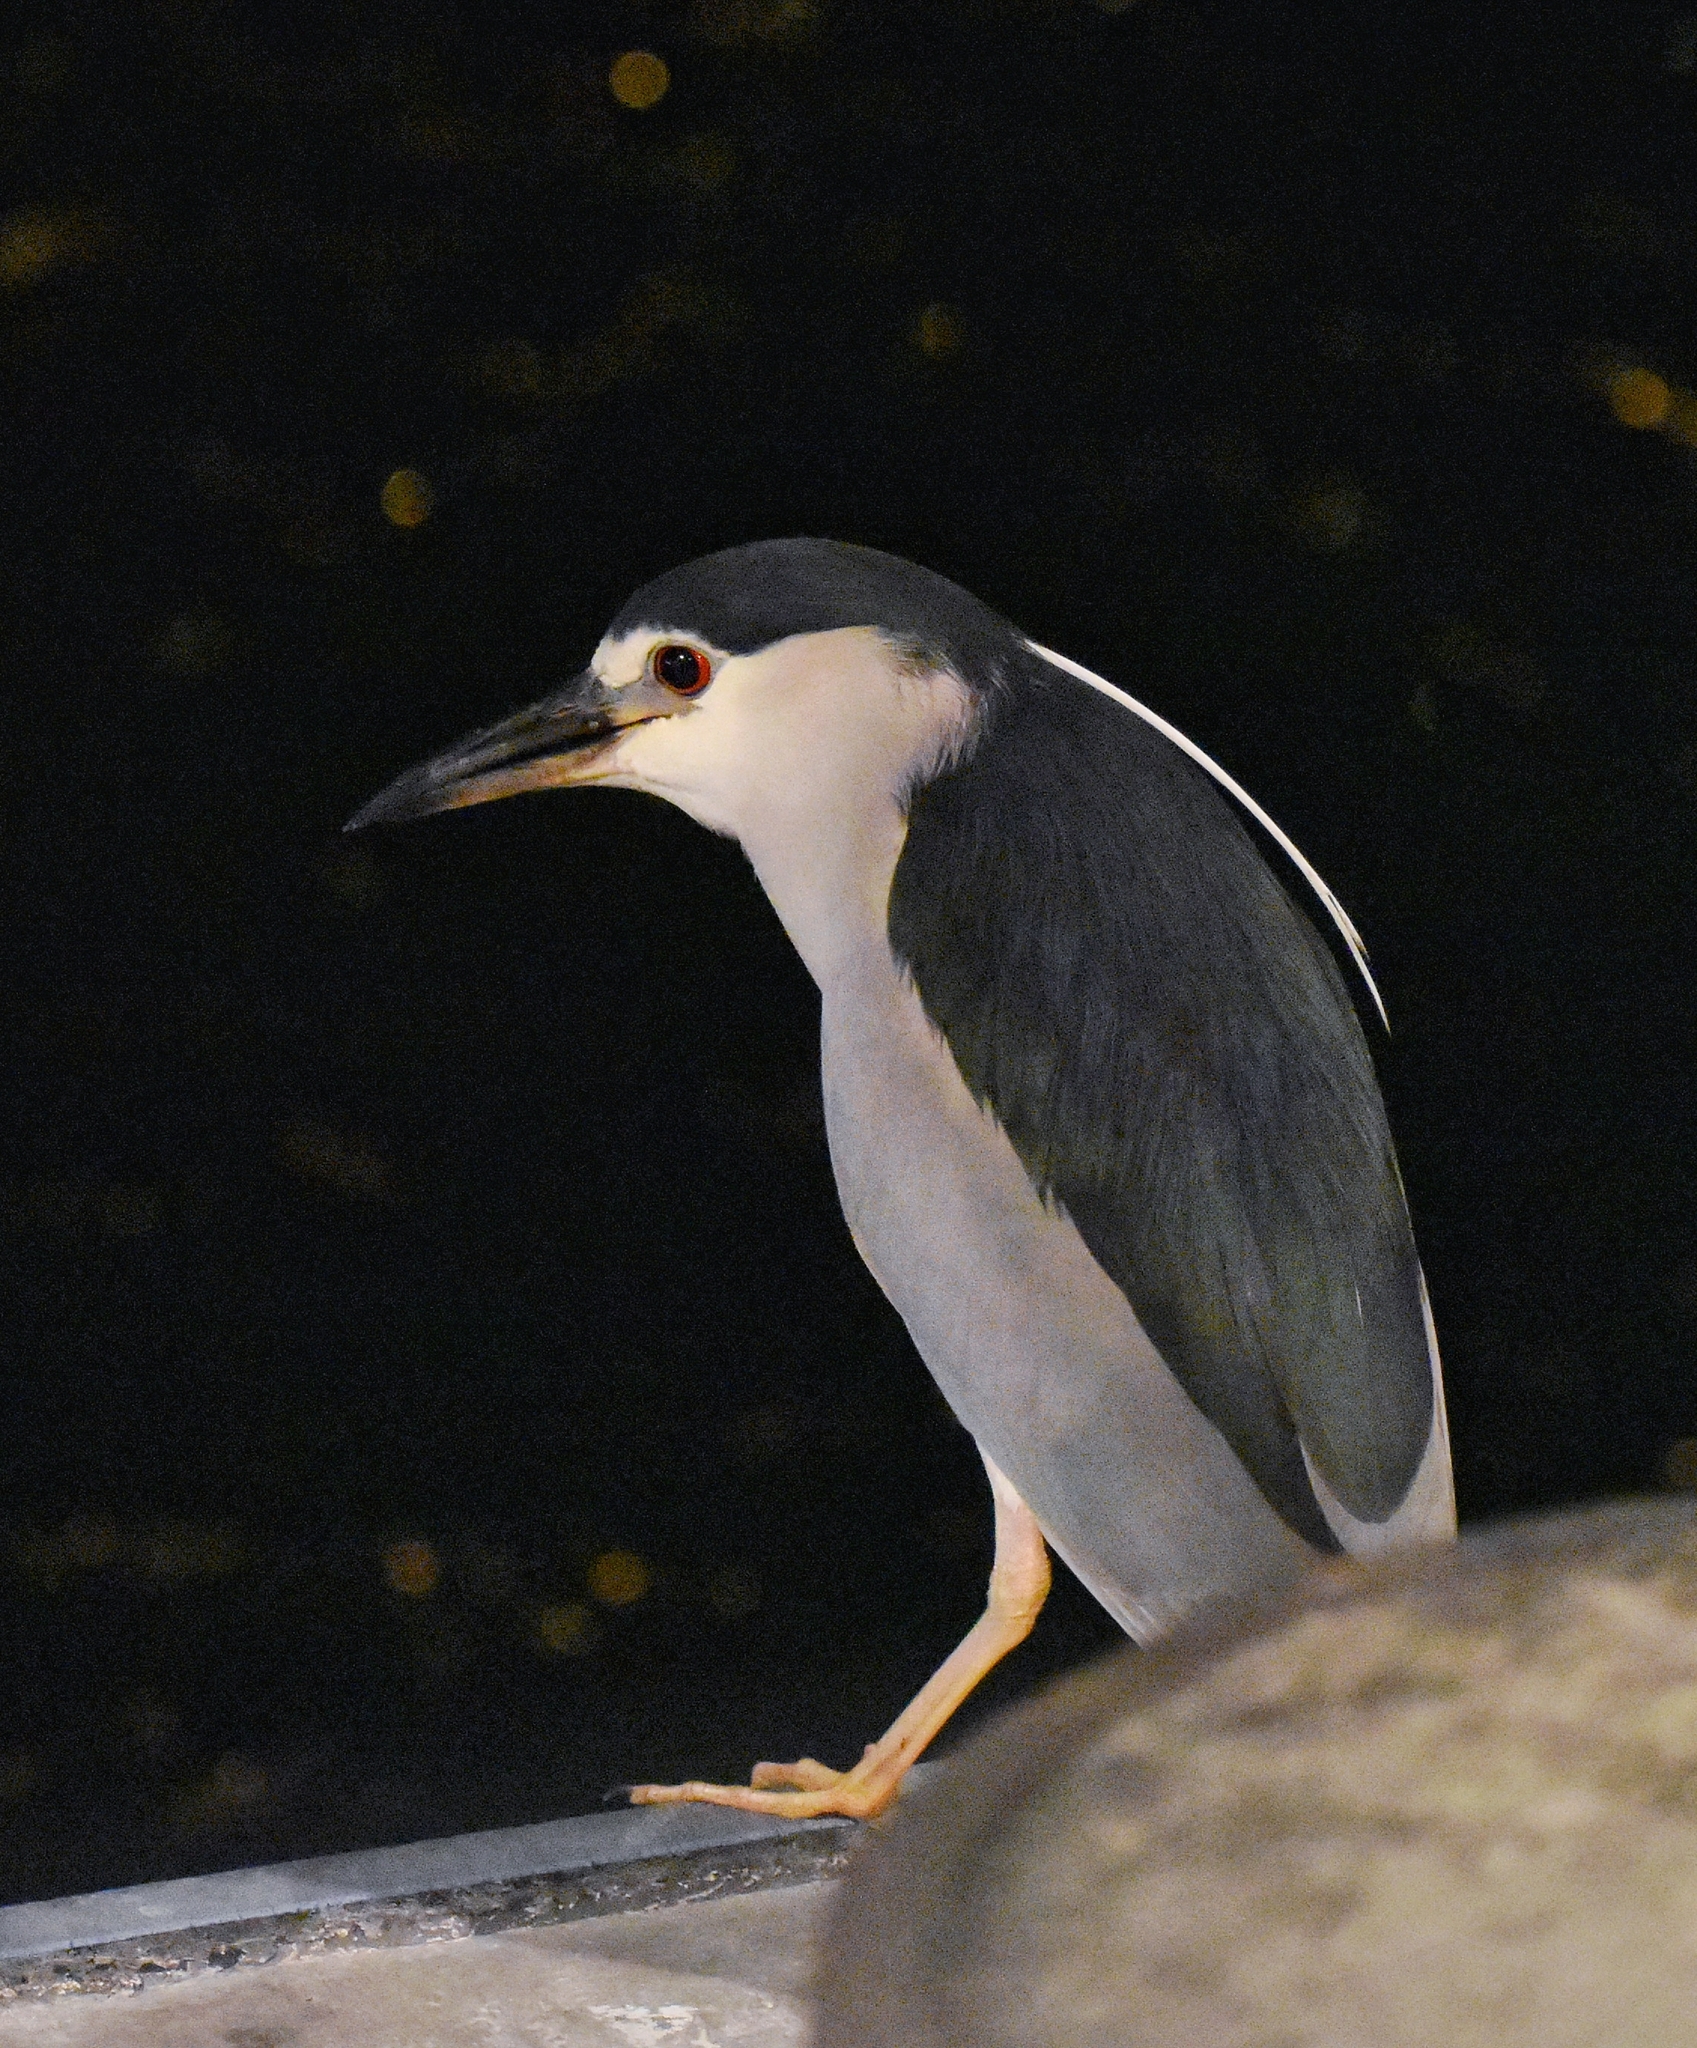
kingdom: Animalia
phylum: Chordata
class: Aves
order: Pelecaniformes
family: Ardeidae
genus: Nycticorax
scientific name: Nycticorax nycticorax
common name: Black-crowned night heron
